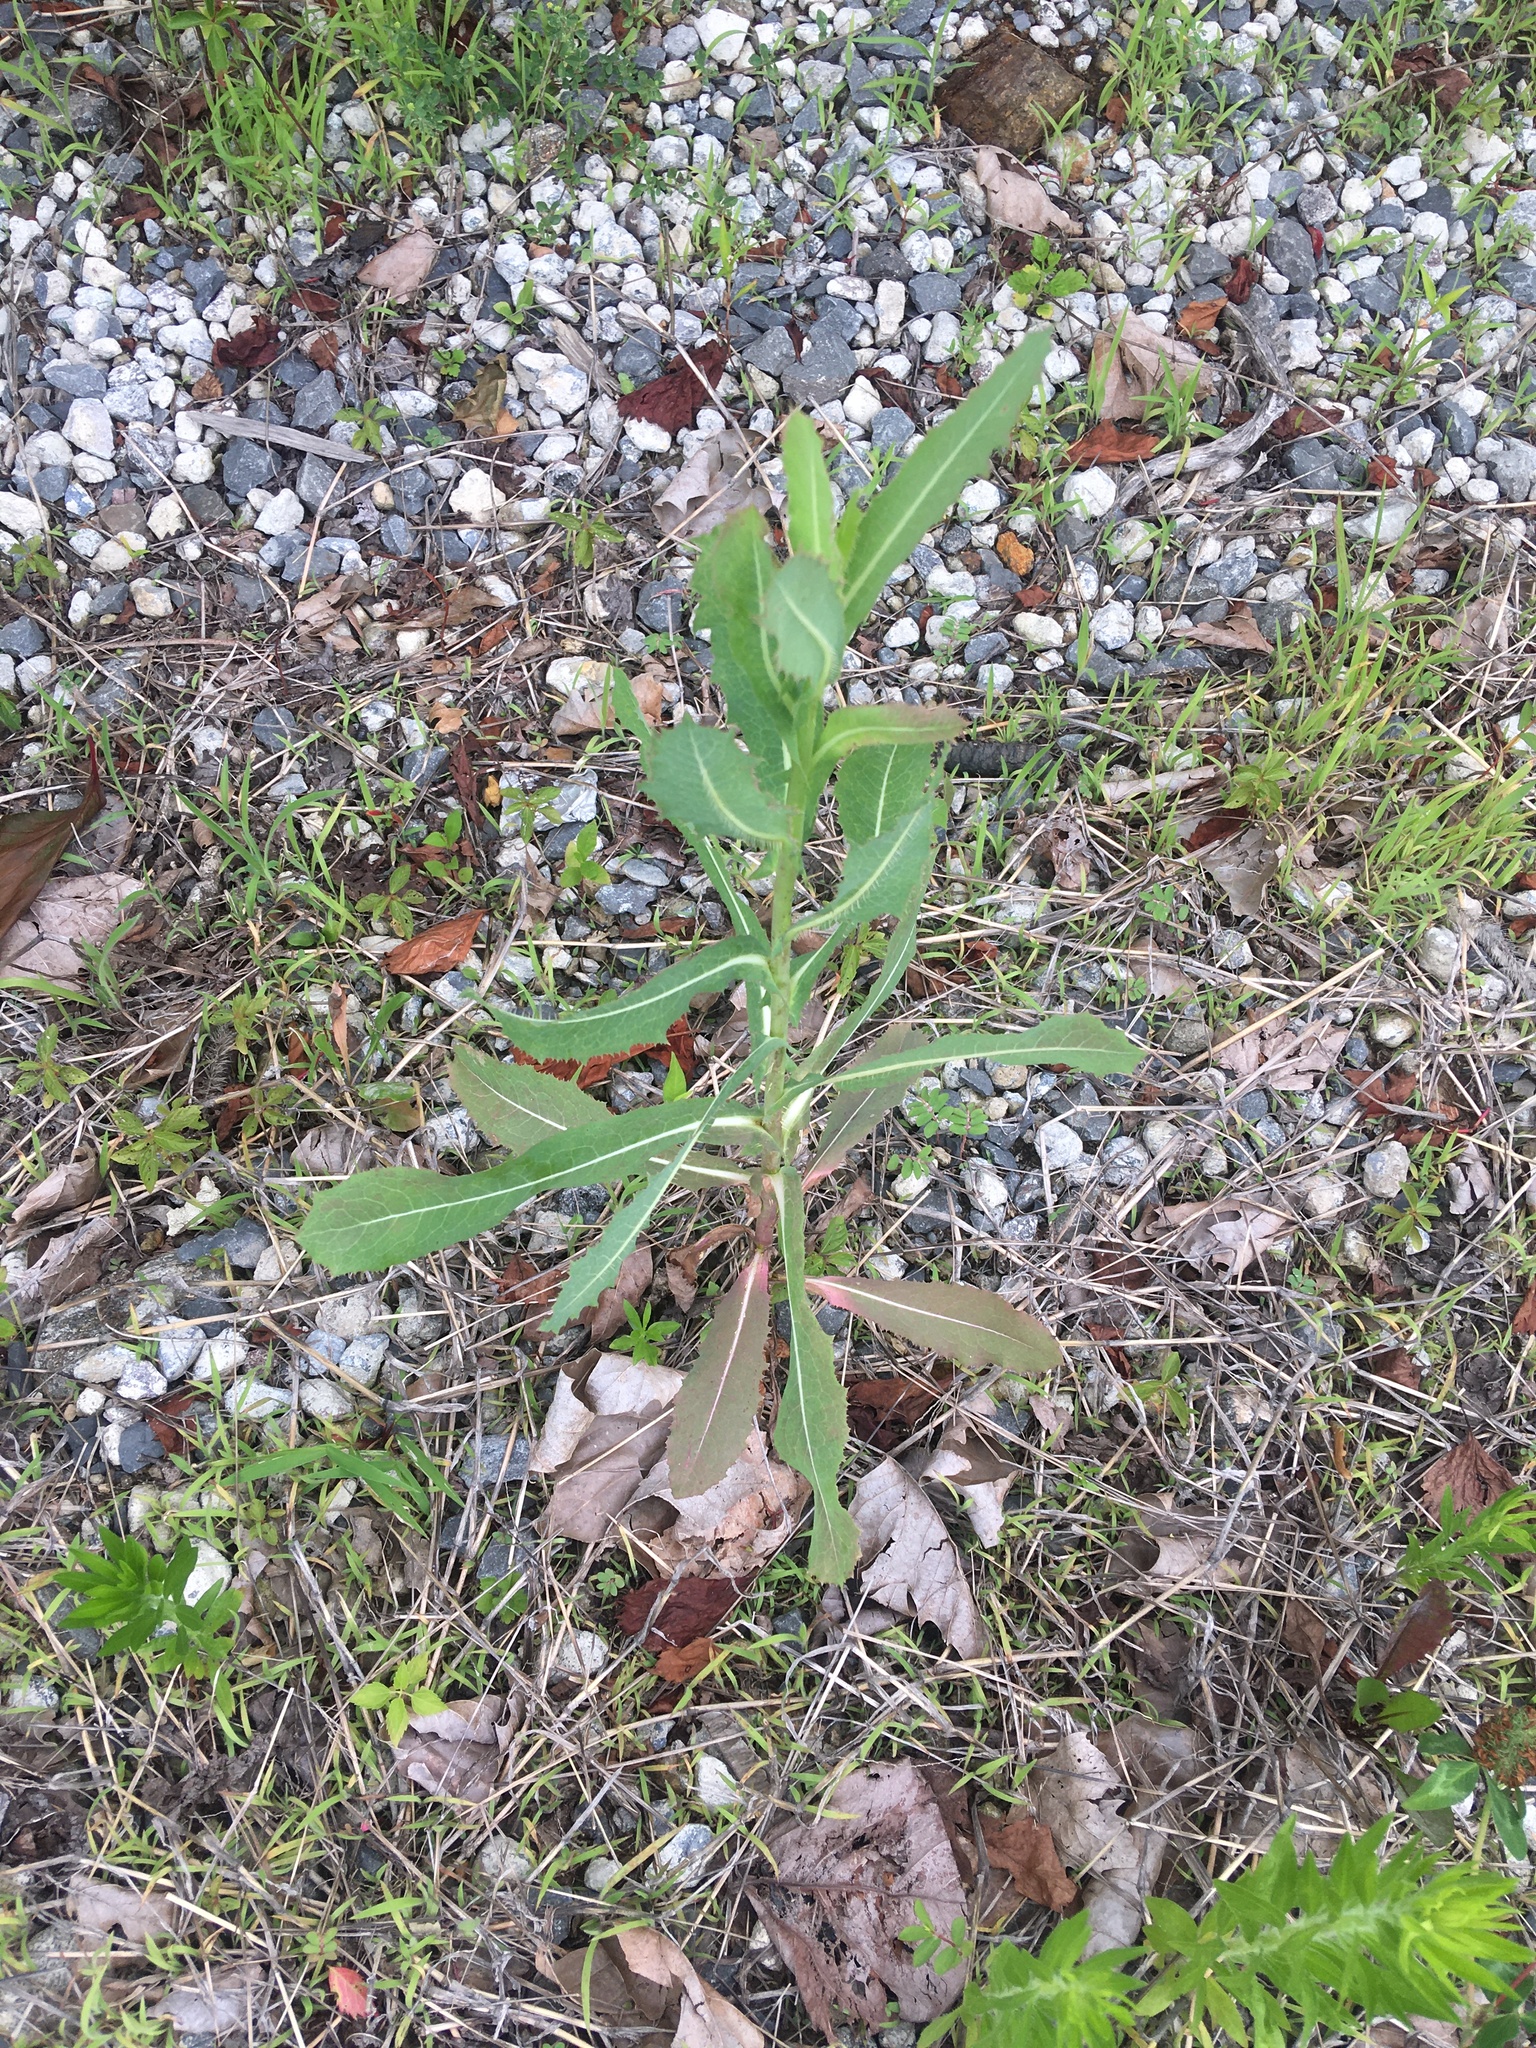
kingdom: Plantae
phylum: Tracheophyta
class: Magnoliopsida
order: Asterales
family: Asteraceae
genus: Lactuca
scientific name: Lactuca serriola
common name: Prickly lettuce
